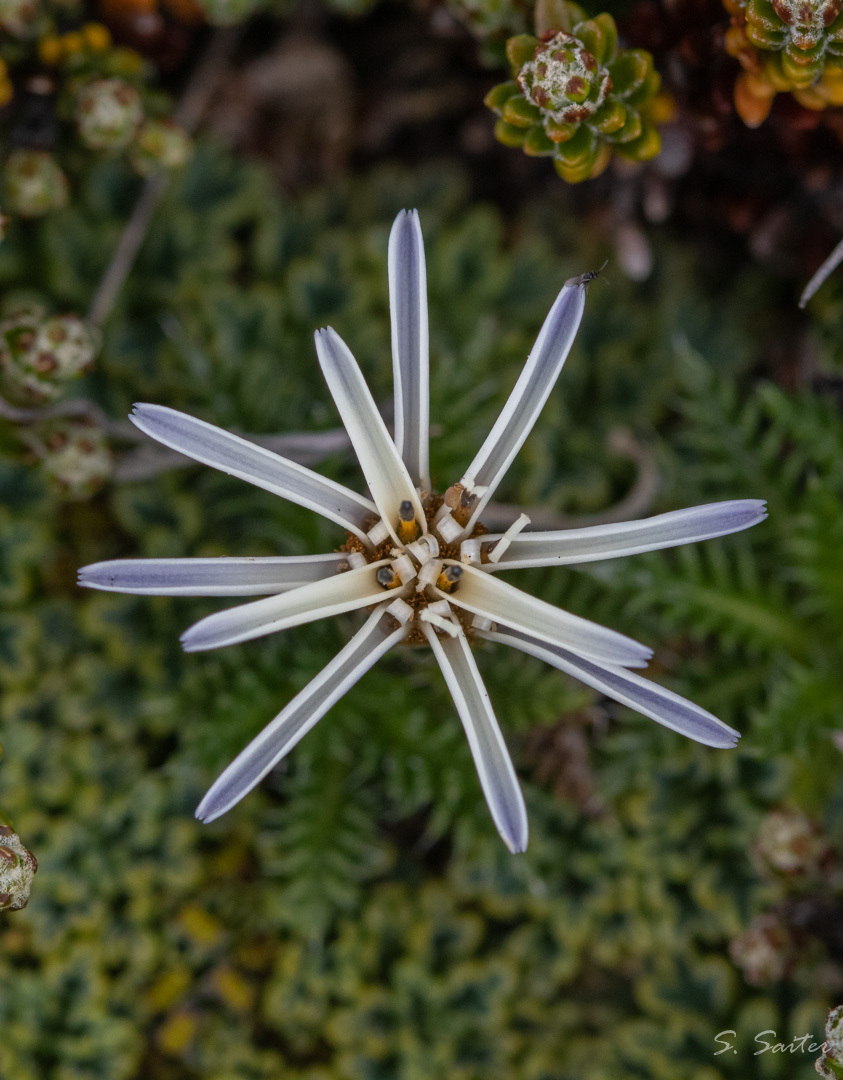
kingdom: Plantae
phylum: Tracheophyta
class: Magnoliopsida
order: Asterales
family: Asteraceae
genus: Perezia
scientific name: Perezia pilifera
